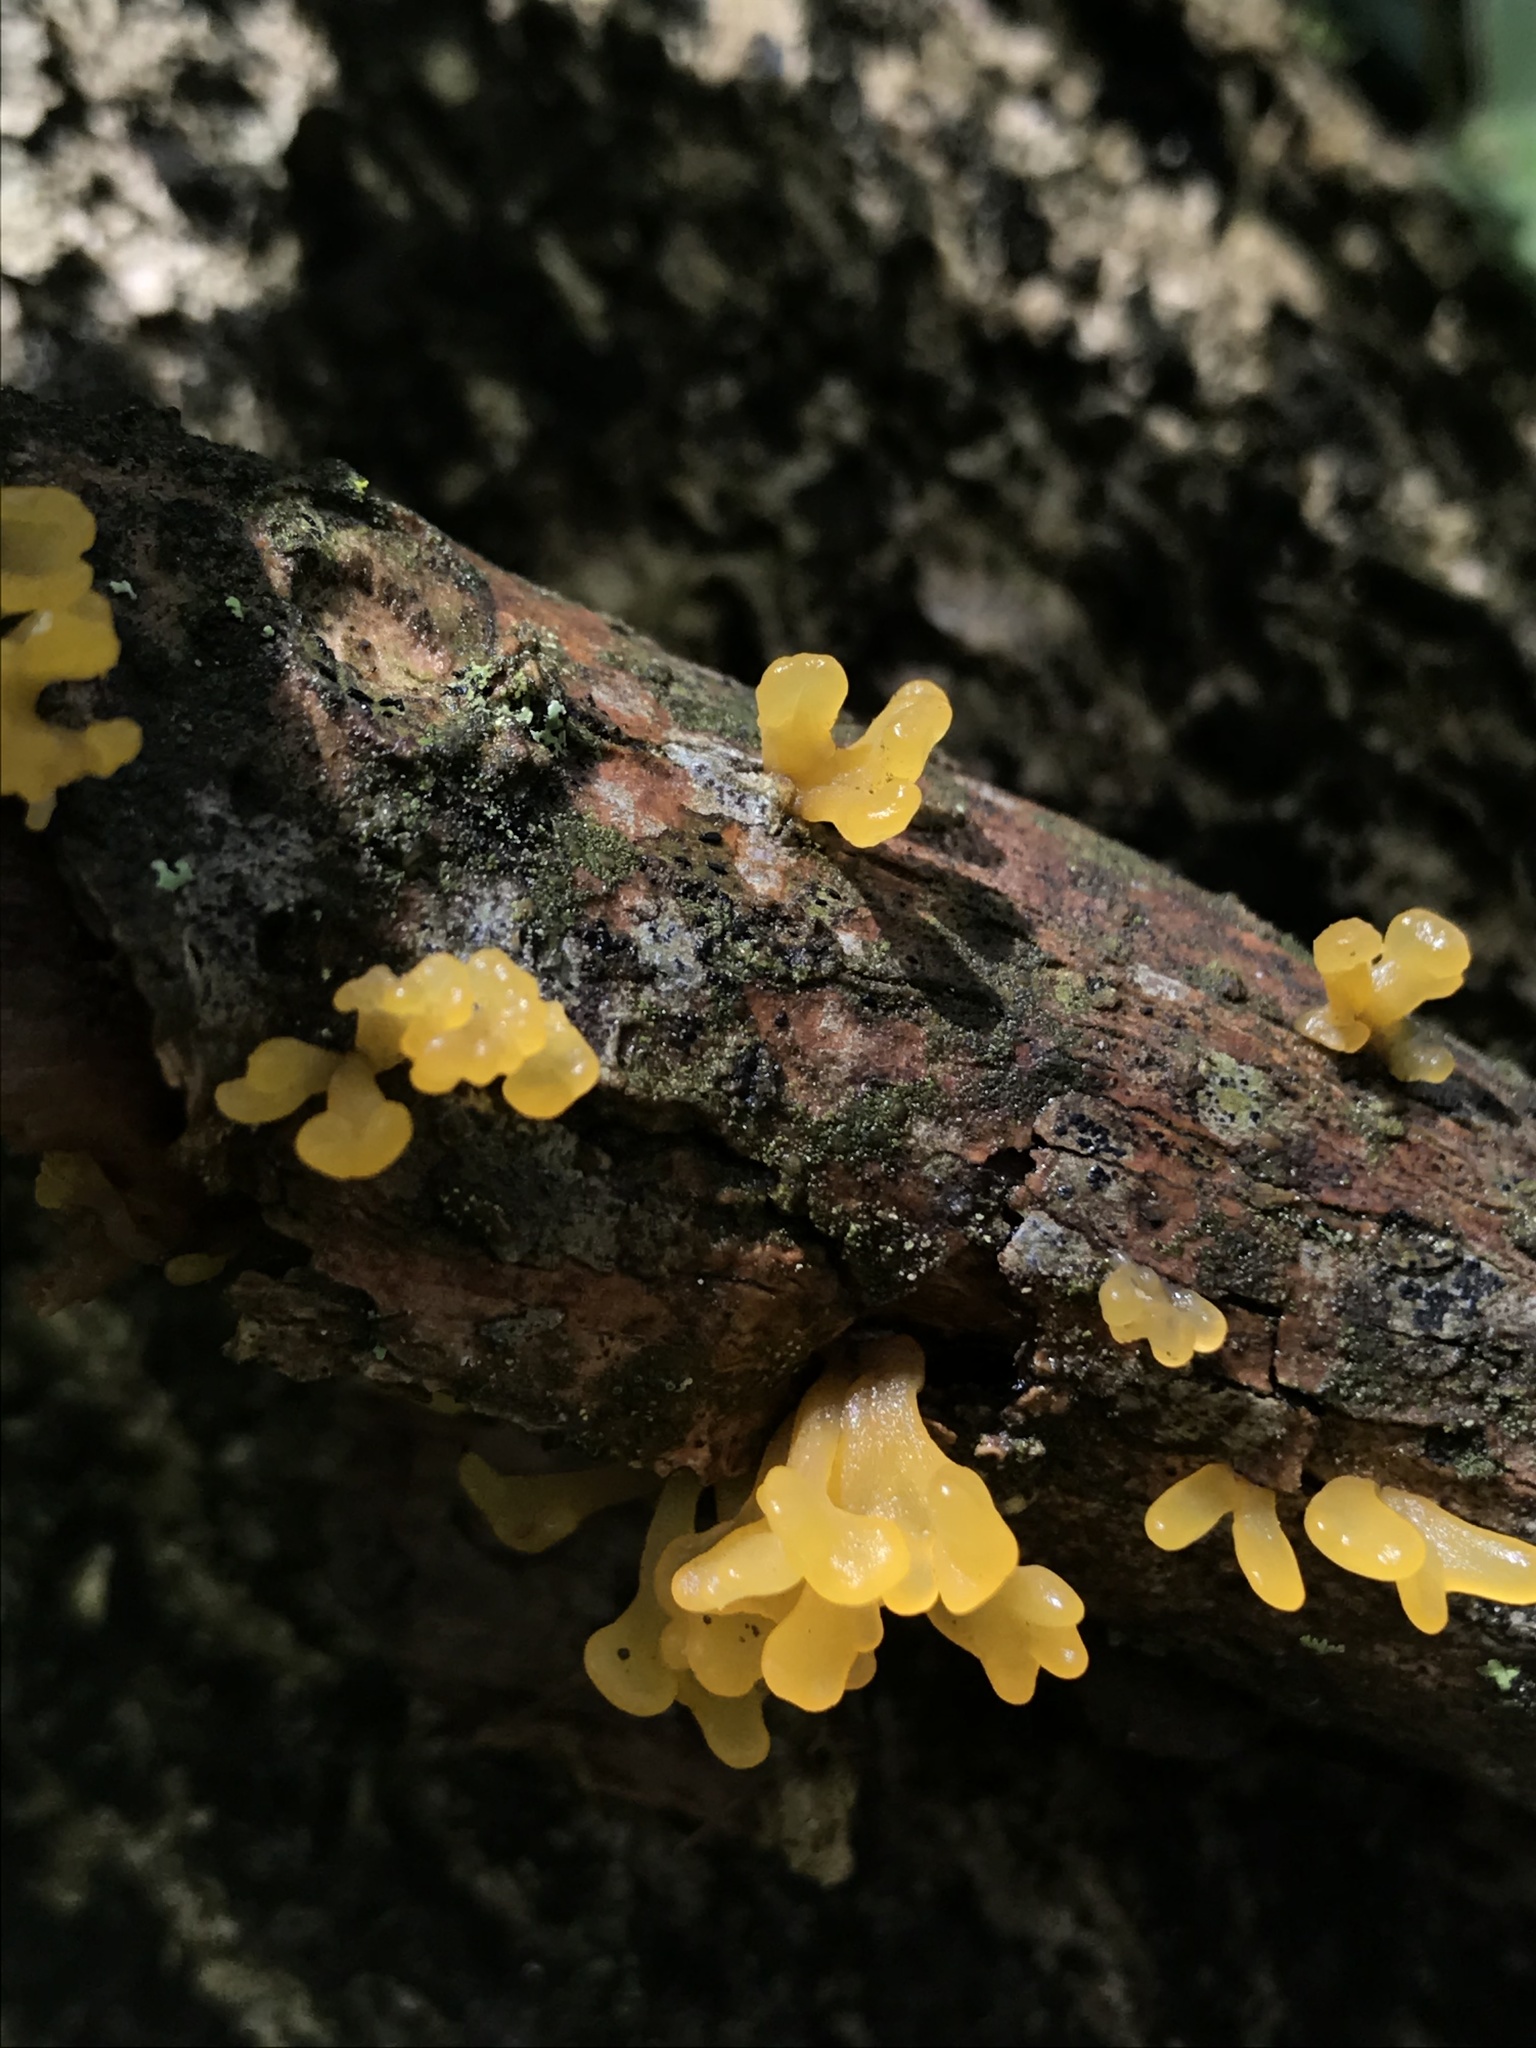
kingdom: Fungi
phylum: Basidiomycota
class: Dacrymycetes
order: Dacrymycetales
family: Dacrymycetaceae
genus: Dacrymyces
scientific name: Dacrymyces spathularius
